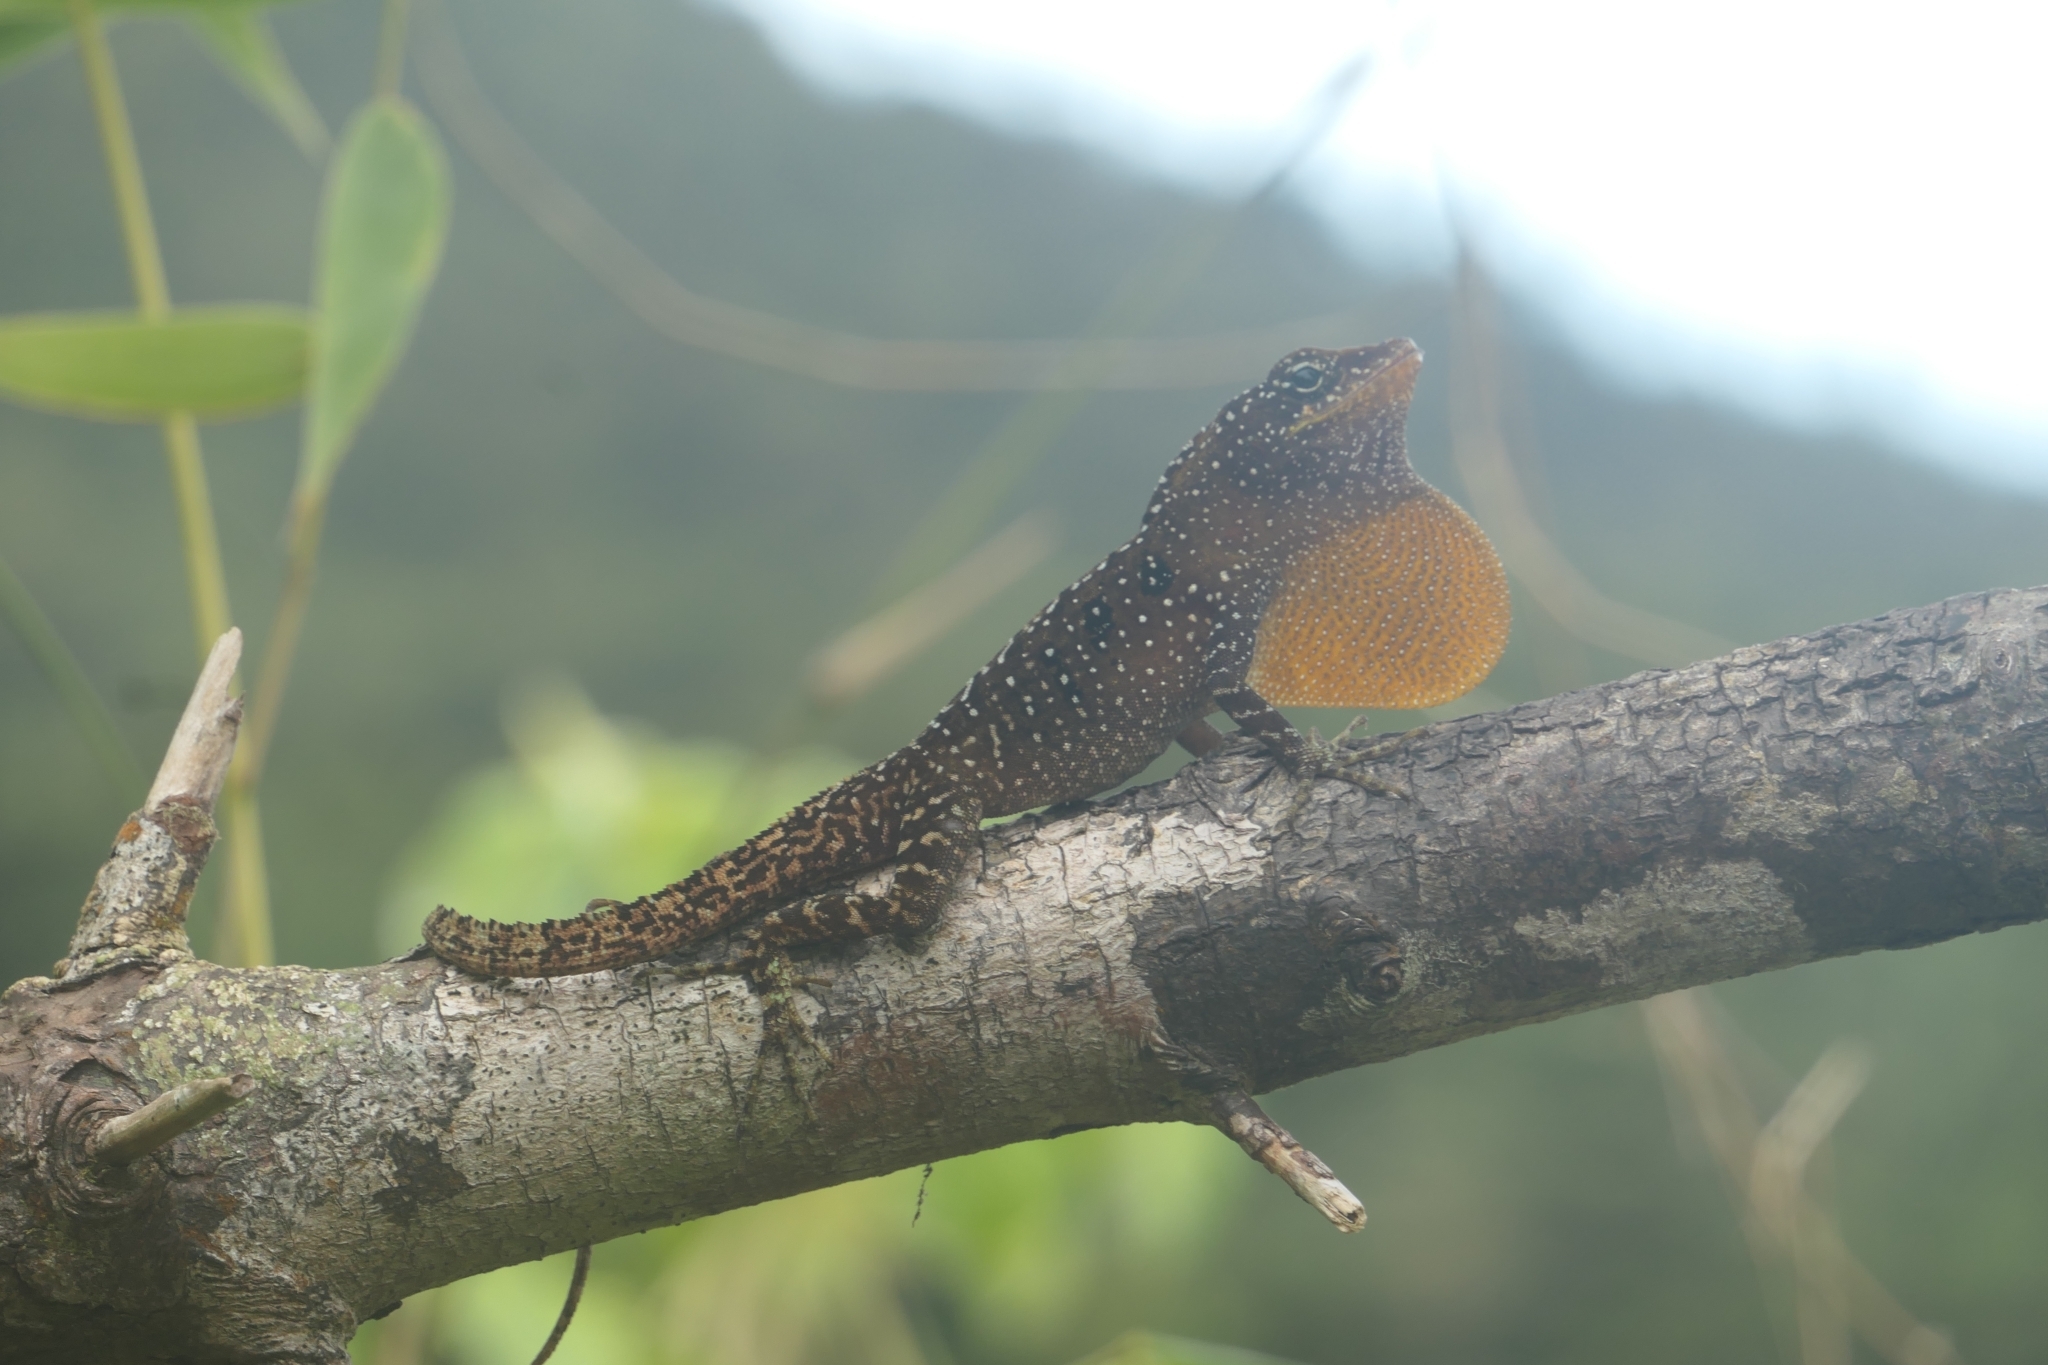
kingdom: Animalia
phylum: Chordata
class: Squamata
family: Dactyloidae
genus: Anolis
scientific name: Anolis oculatus
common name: Dominica anole
